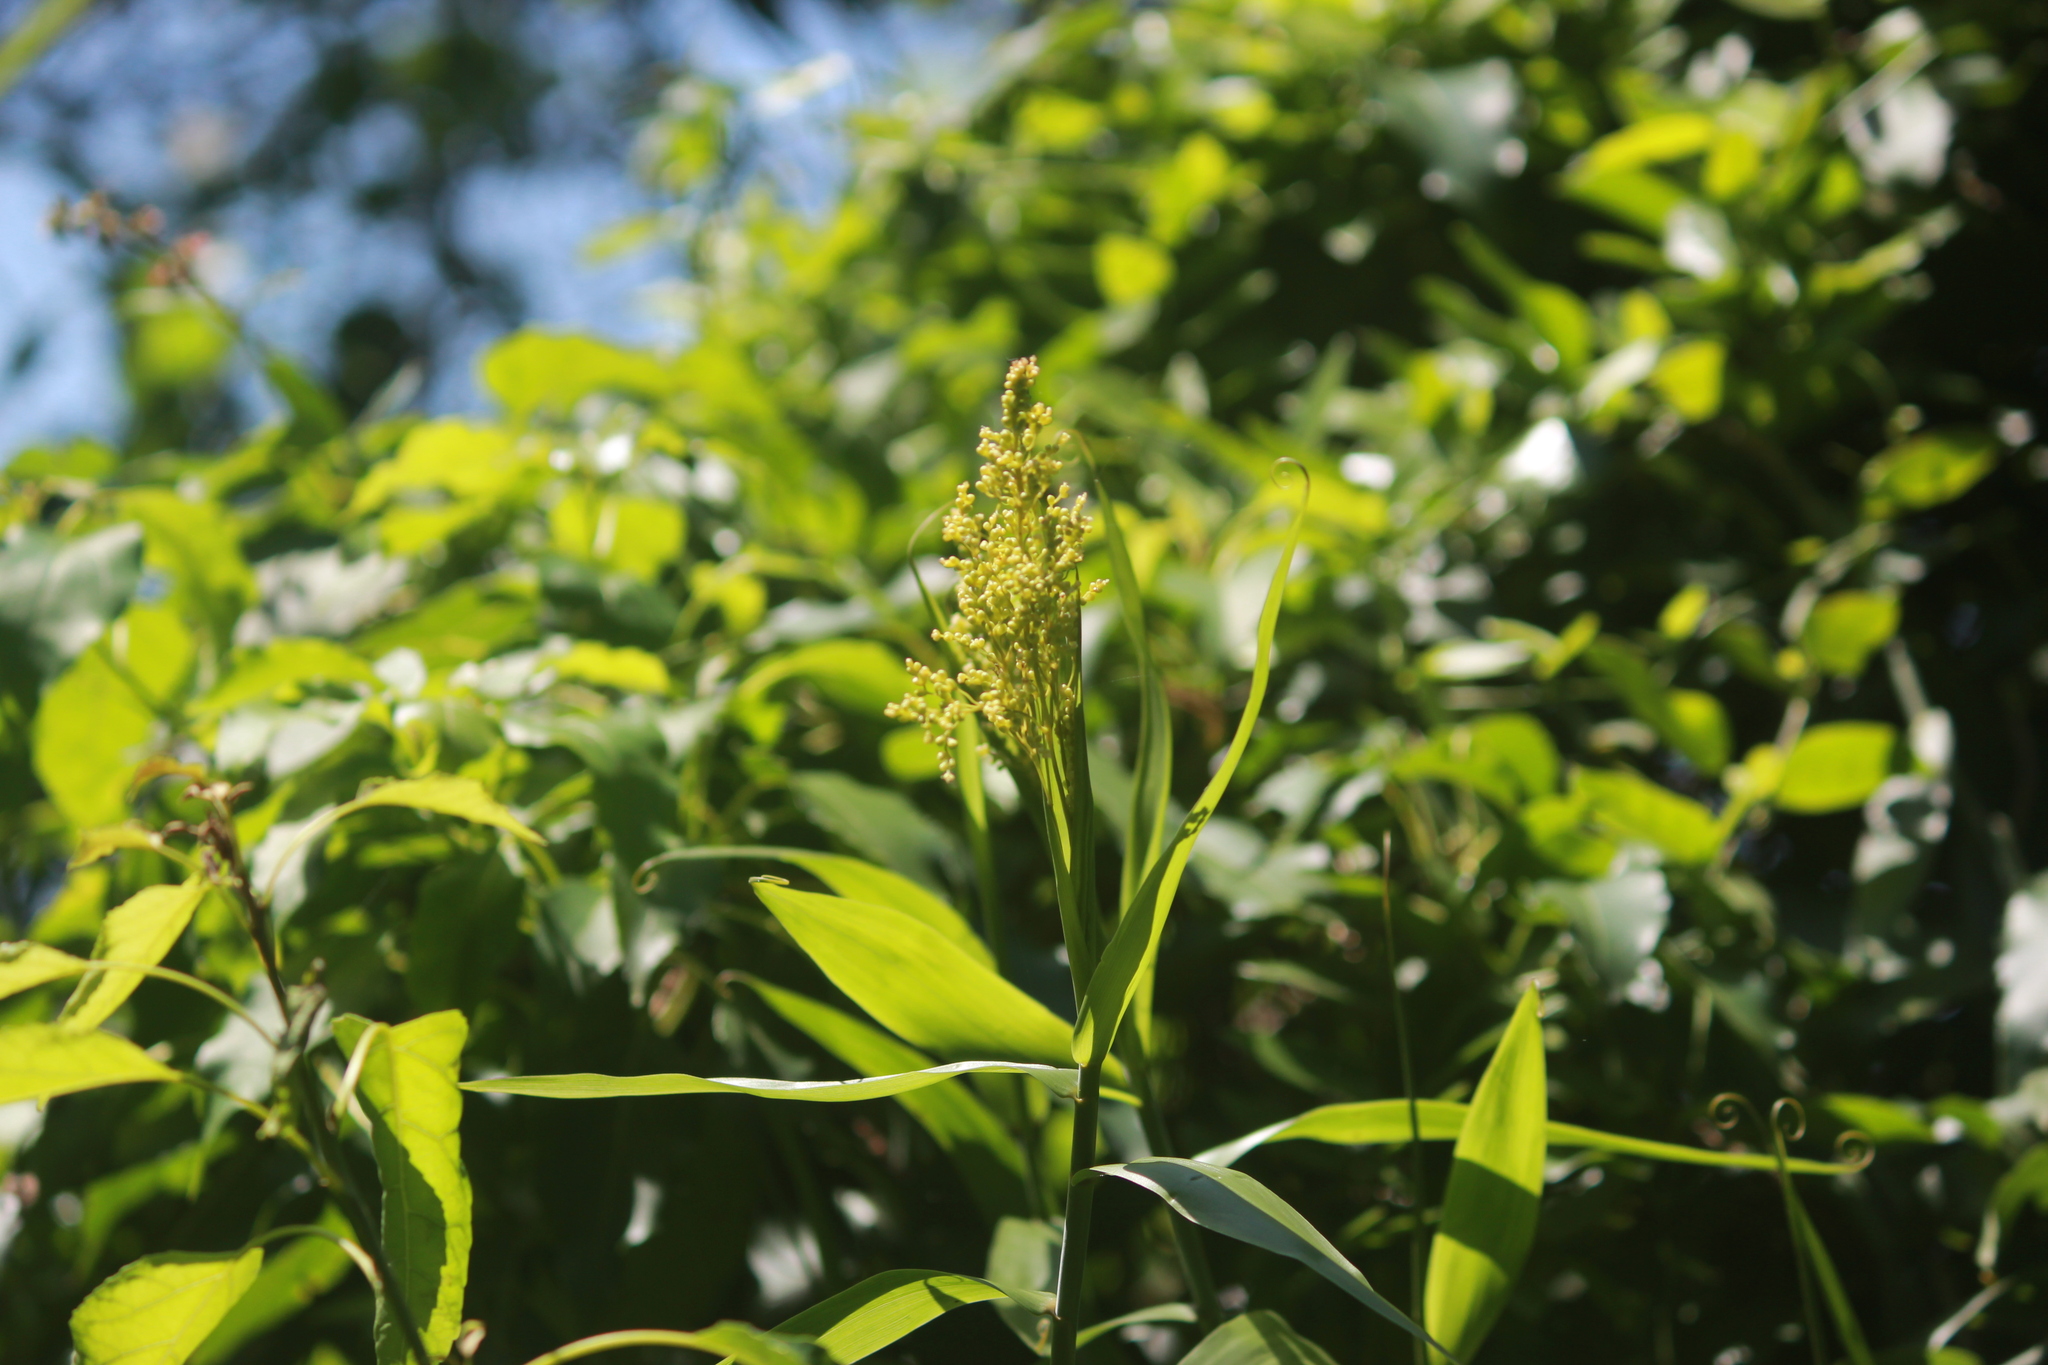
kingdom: Plantae
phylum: Tracheophyta
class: Liliopsida
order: Poales
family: Flagellariaceae
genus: Flagellaria
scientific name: Flagellaria guineensis
